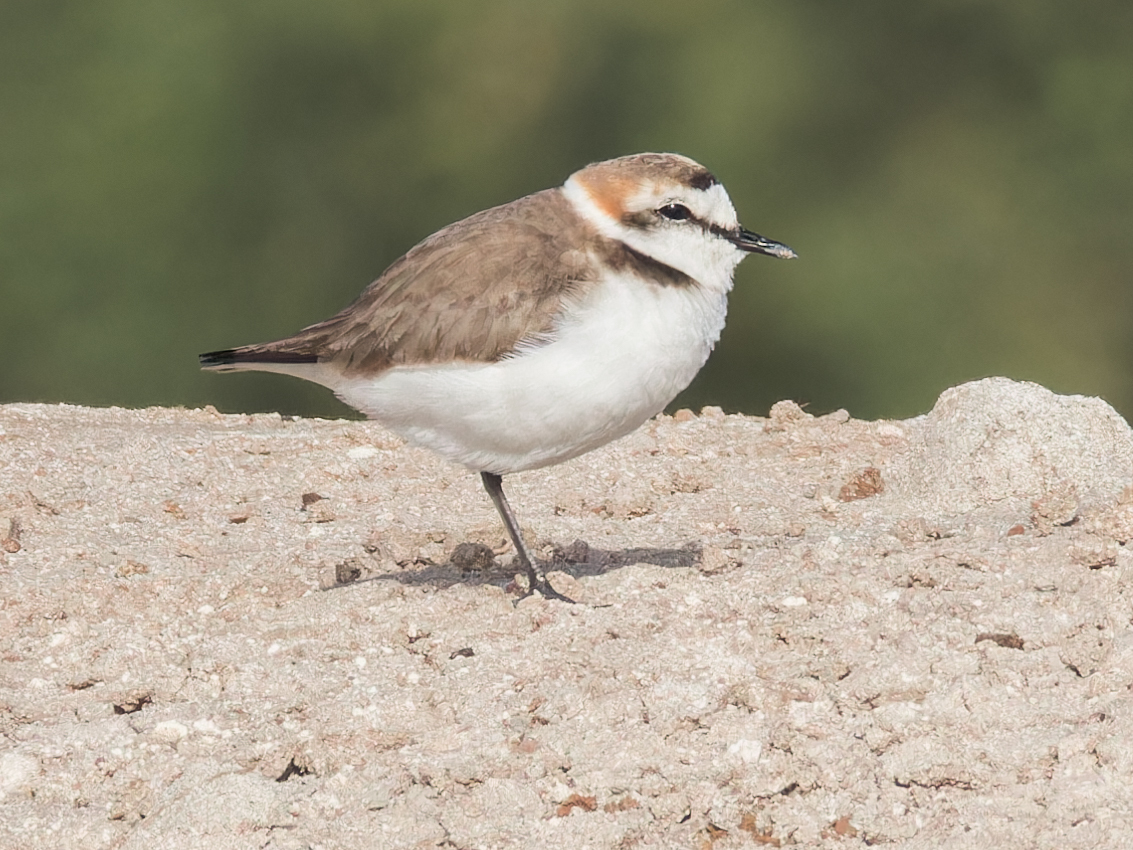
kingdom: Animalia
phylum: Chordata
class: Aves
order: Charadriiformes
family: Charadriidae
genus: Charadrius
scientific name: Charadrius alexandrinus
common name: Kentish plover
